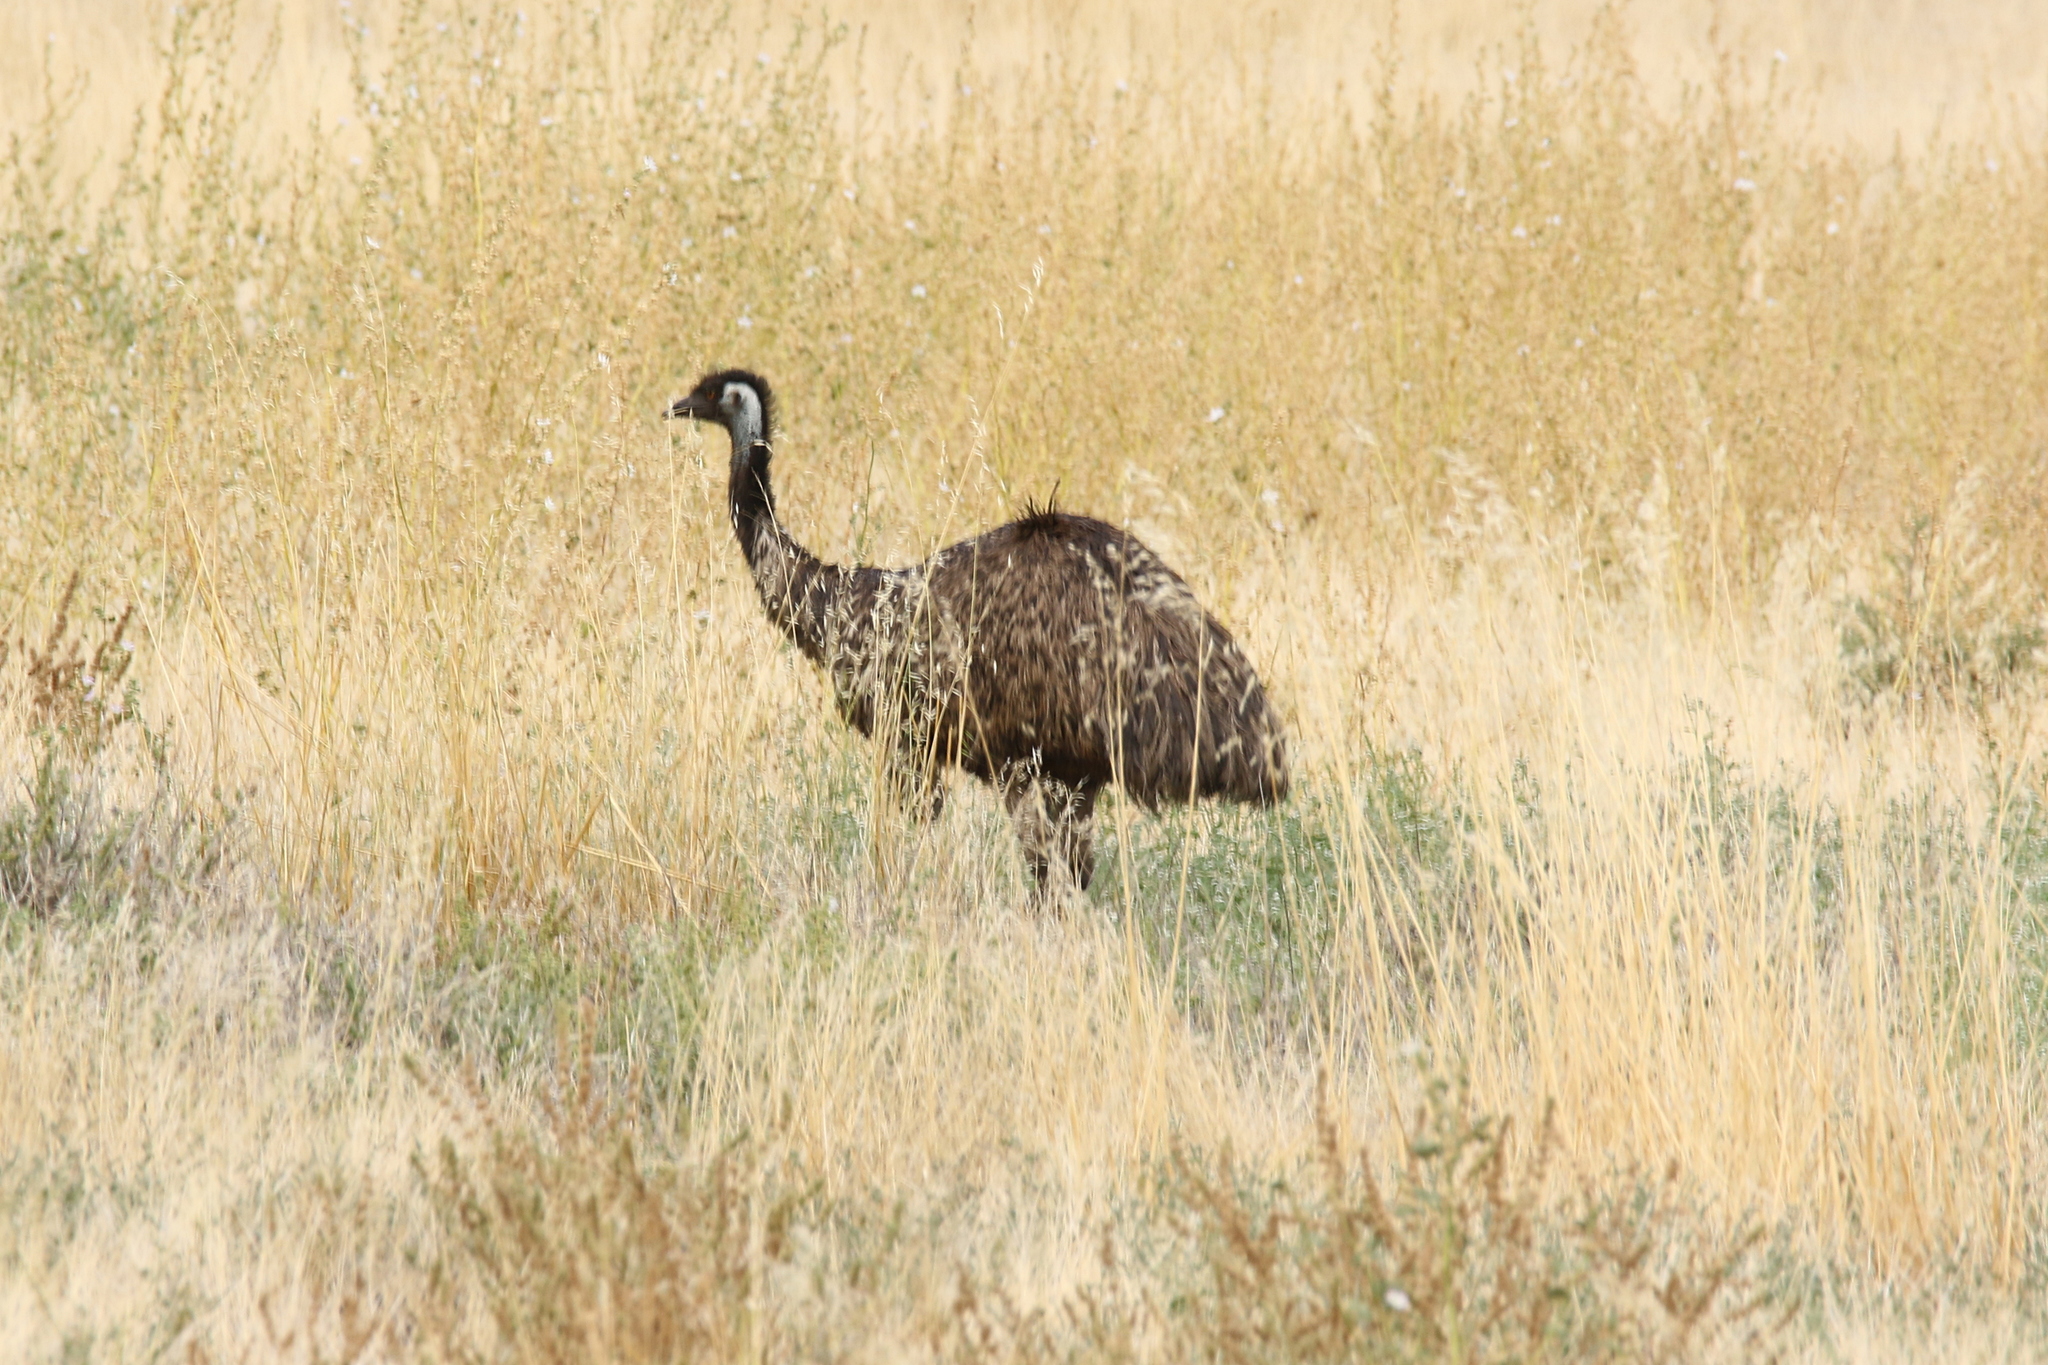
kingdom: Animalia
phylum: Chordata
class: Aves
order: Casuariiformes
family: Dromaiidae
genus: Dromaius
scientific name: Dromaius novaehollandiae
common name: Emu
